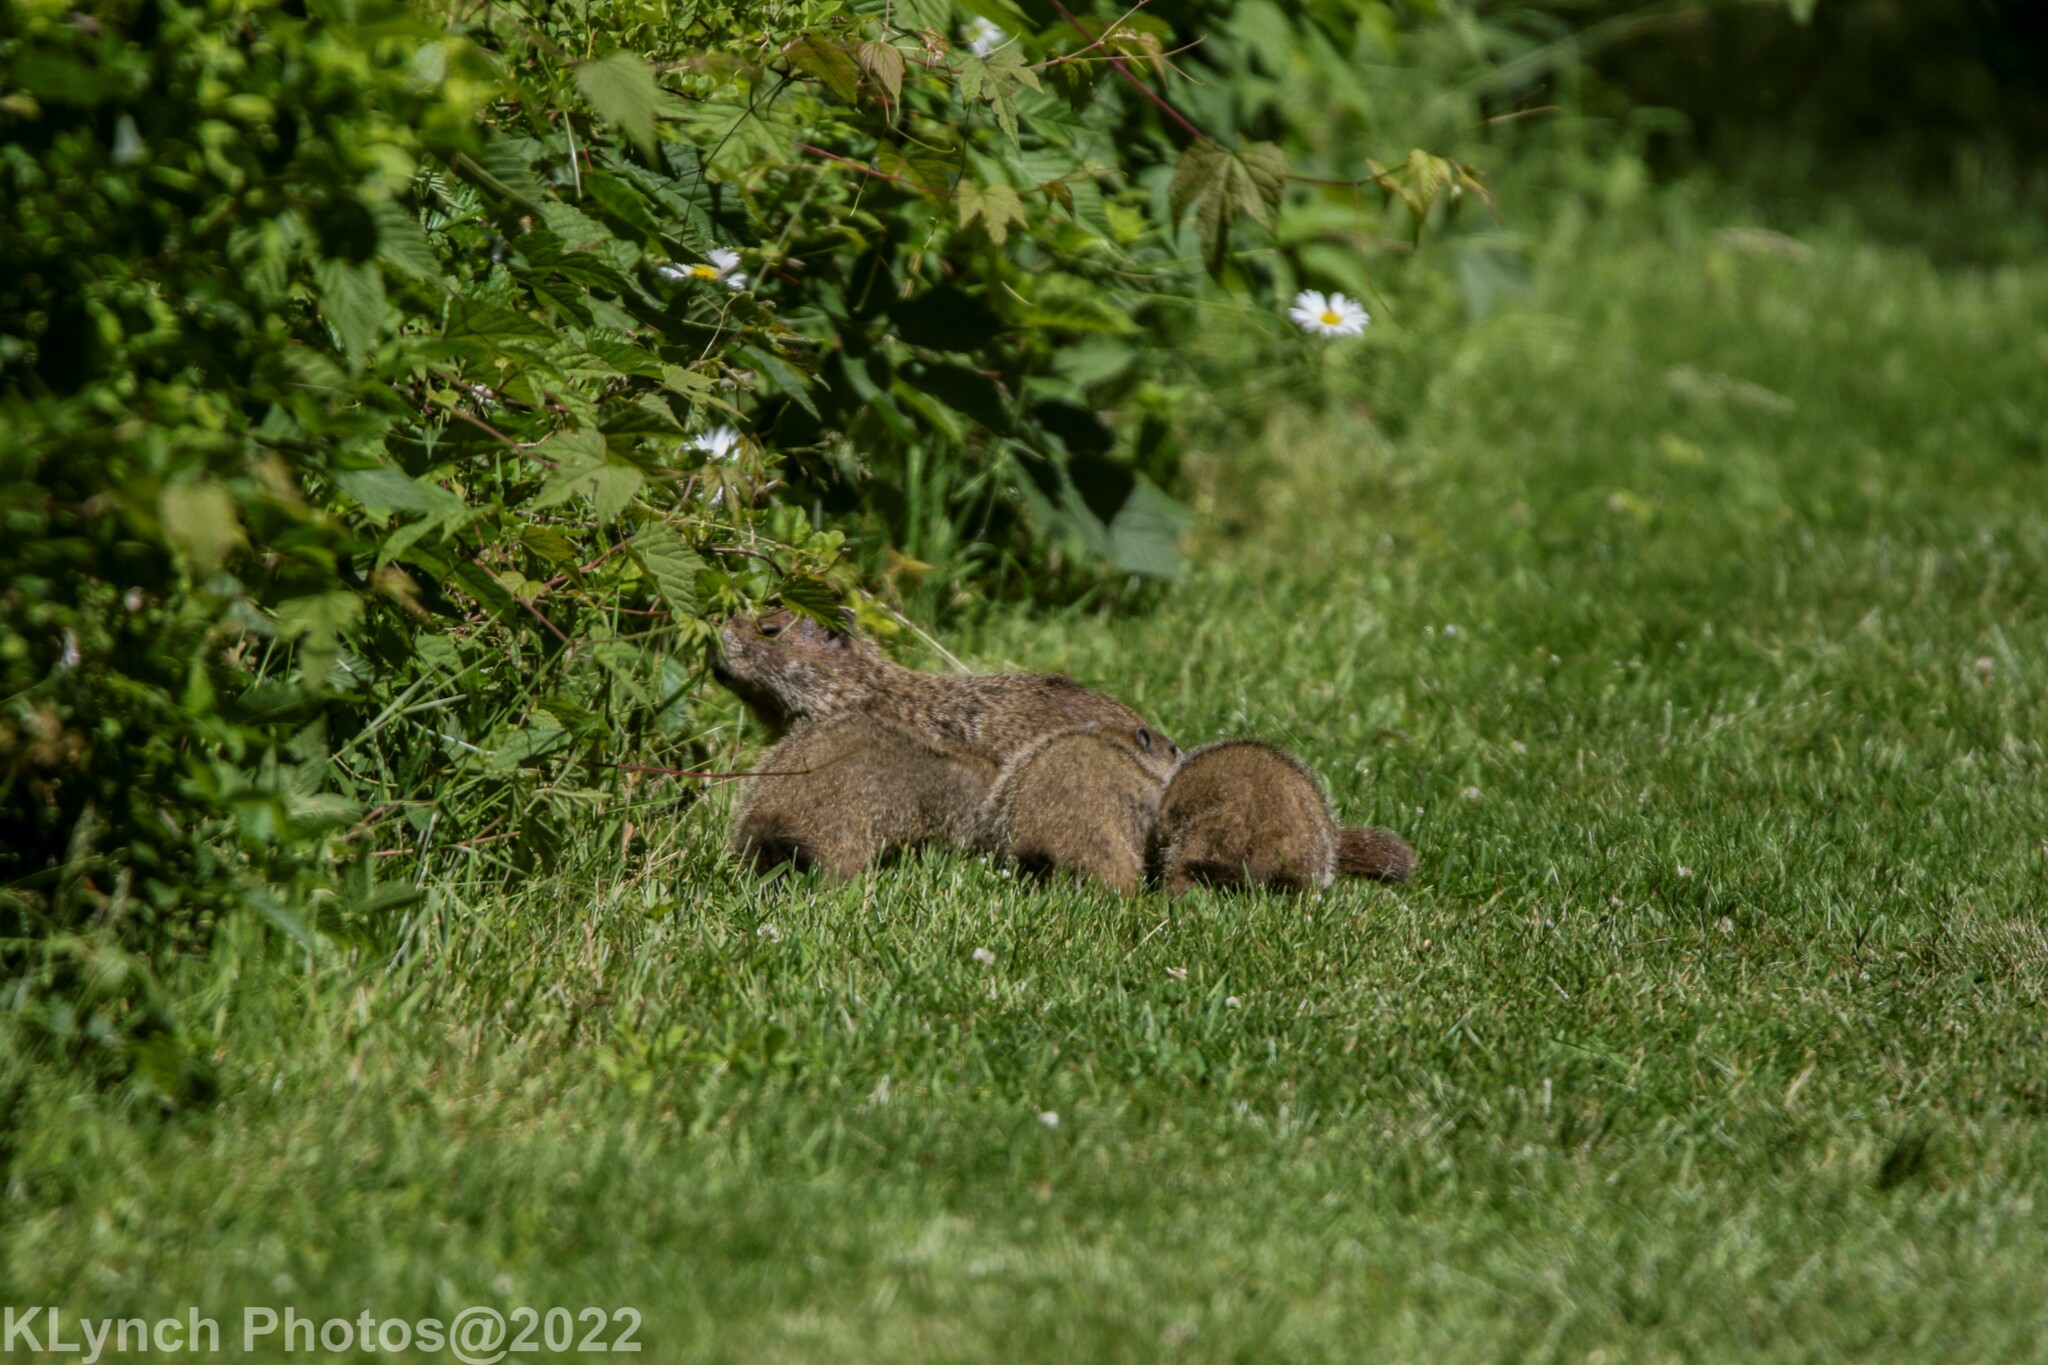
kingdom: Animalia
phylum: Chordata
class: Mammalia
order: Rodentia
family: Sciuridae
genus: Marmota
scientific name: Marmota monax
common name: Groundhog
